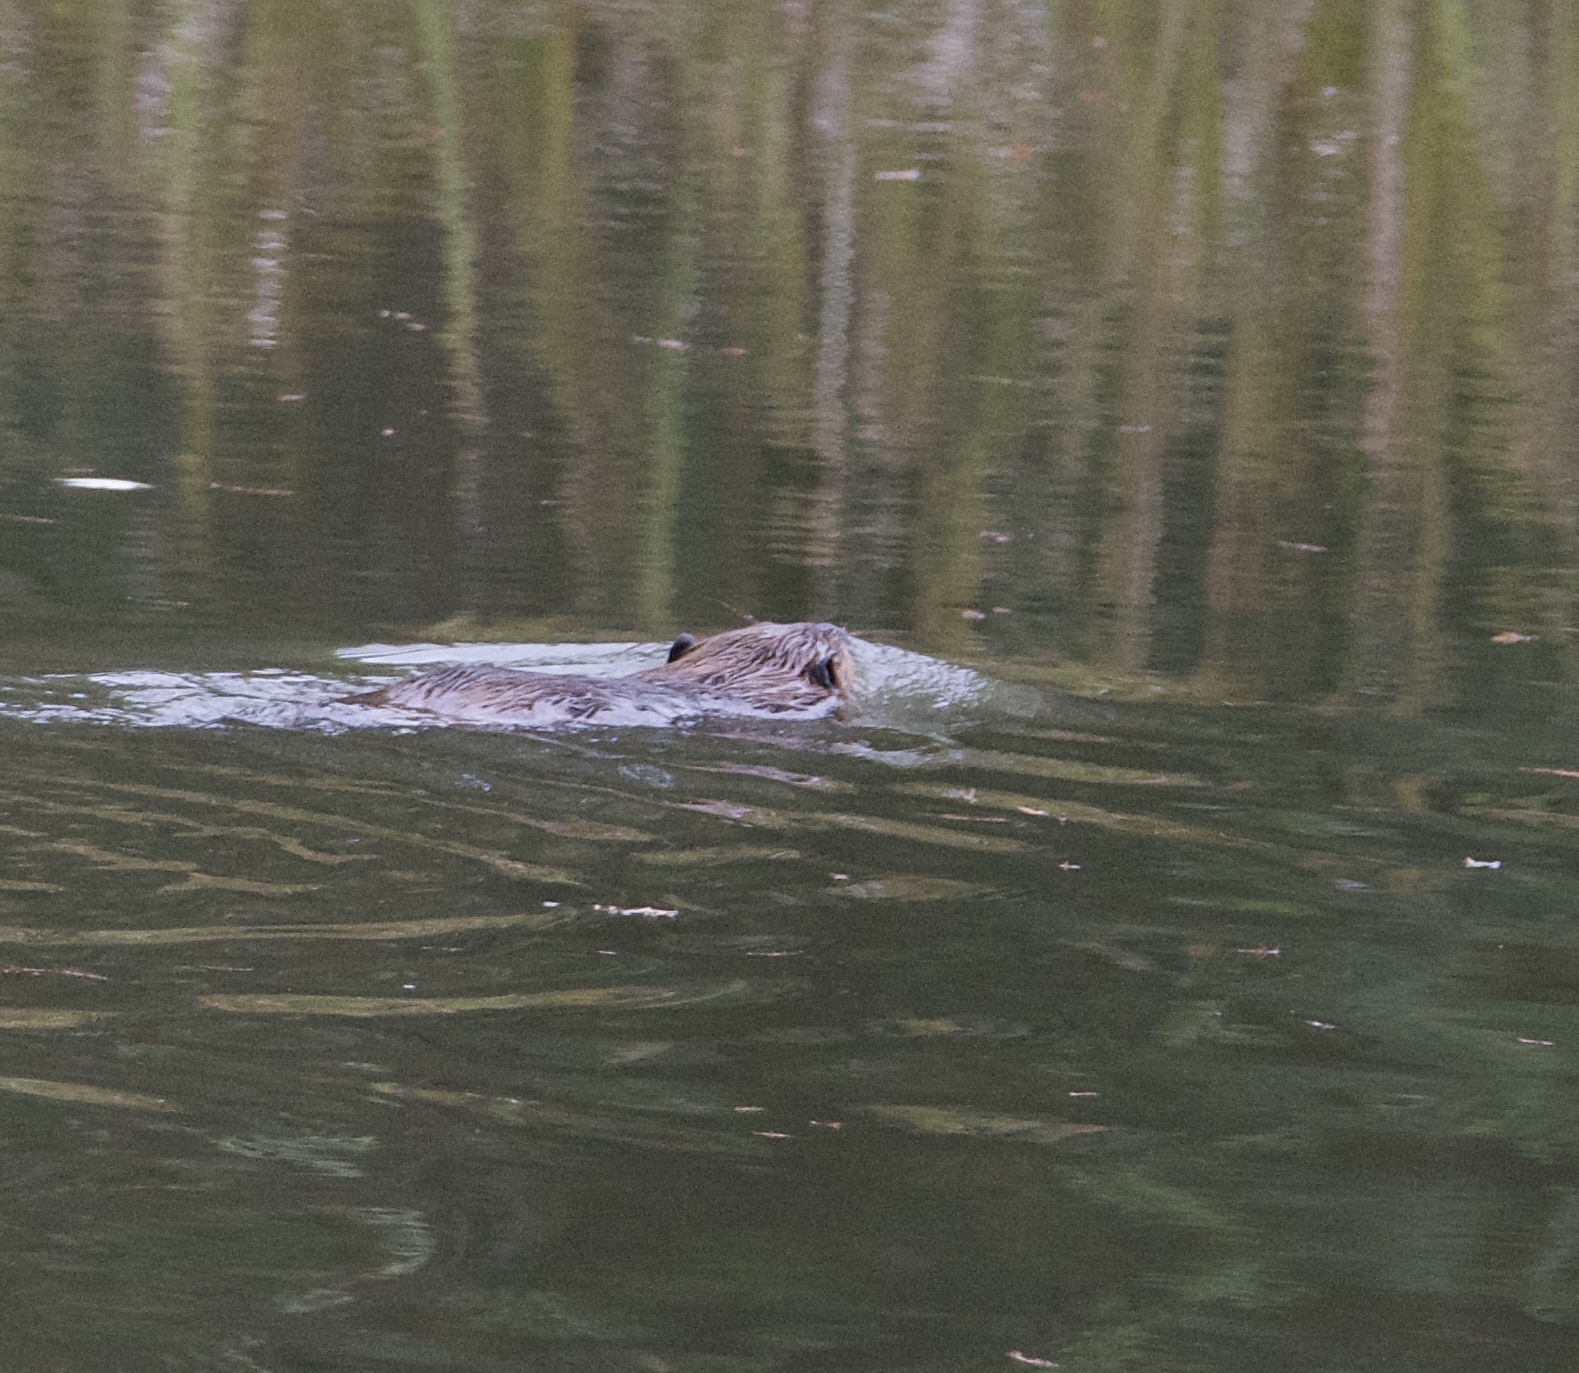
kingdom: Animalia
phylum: Chordata
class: Mammalia
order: Rodentia
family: Castoridae
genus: Castor
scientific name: Castor canadensis
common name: American beaver
